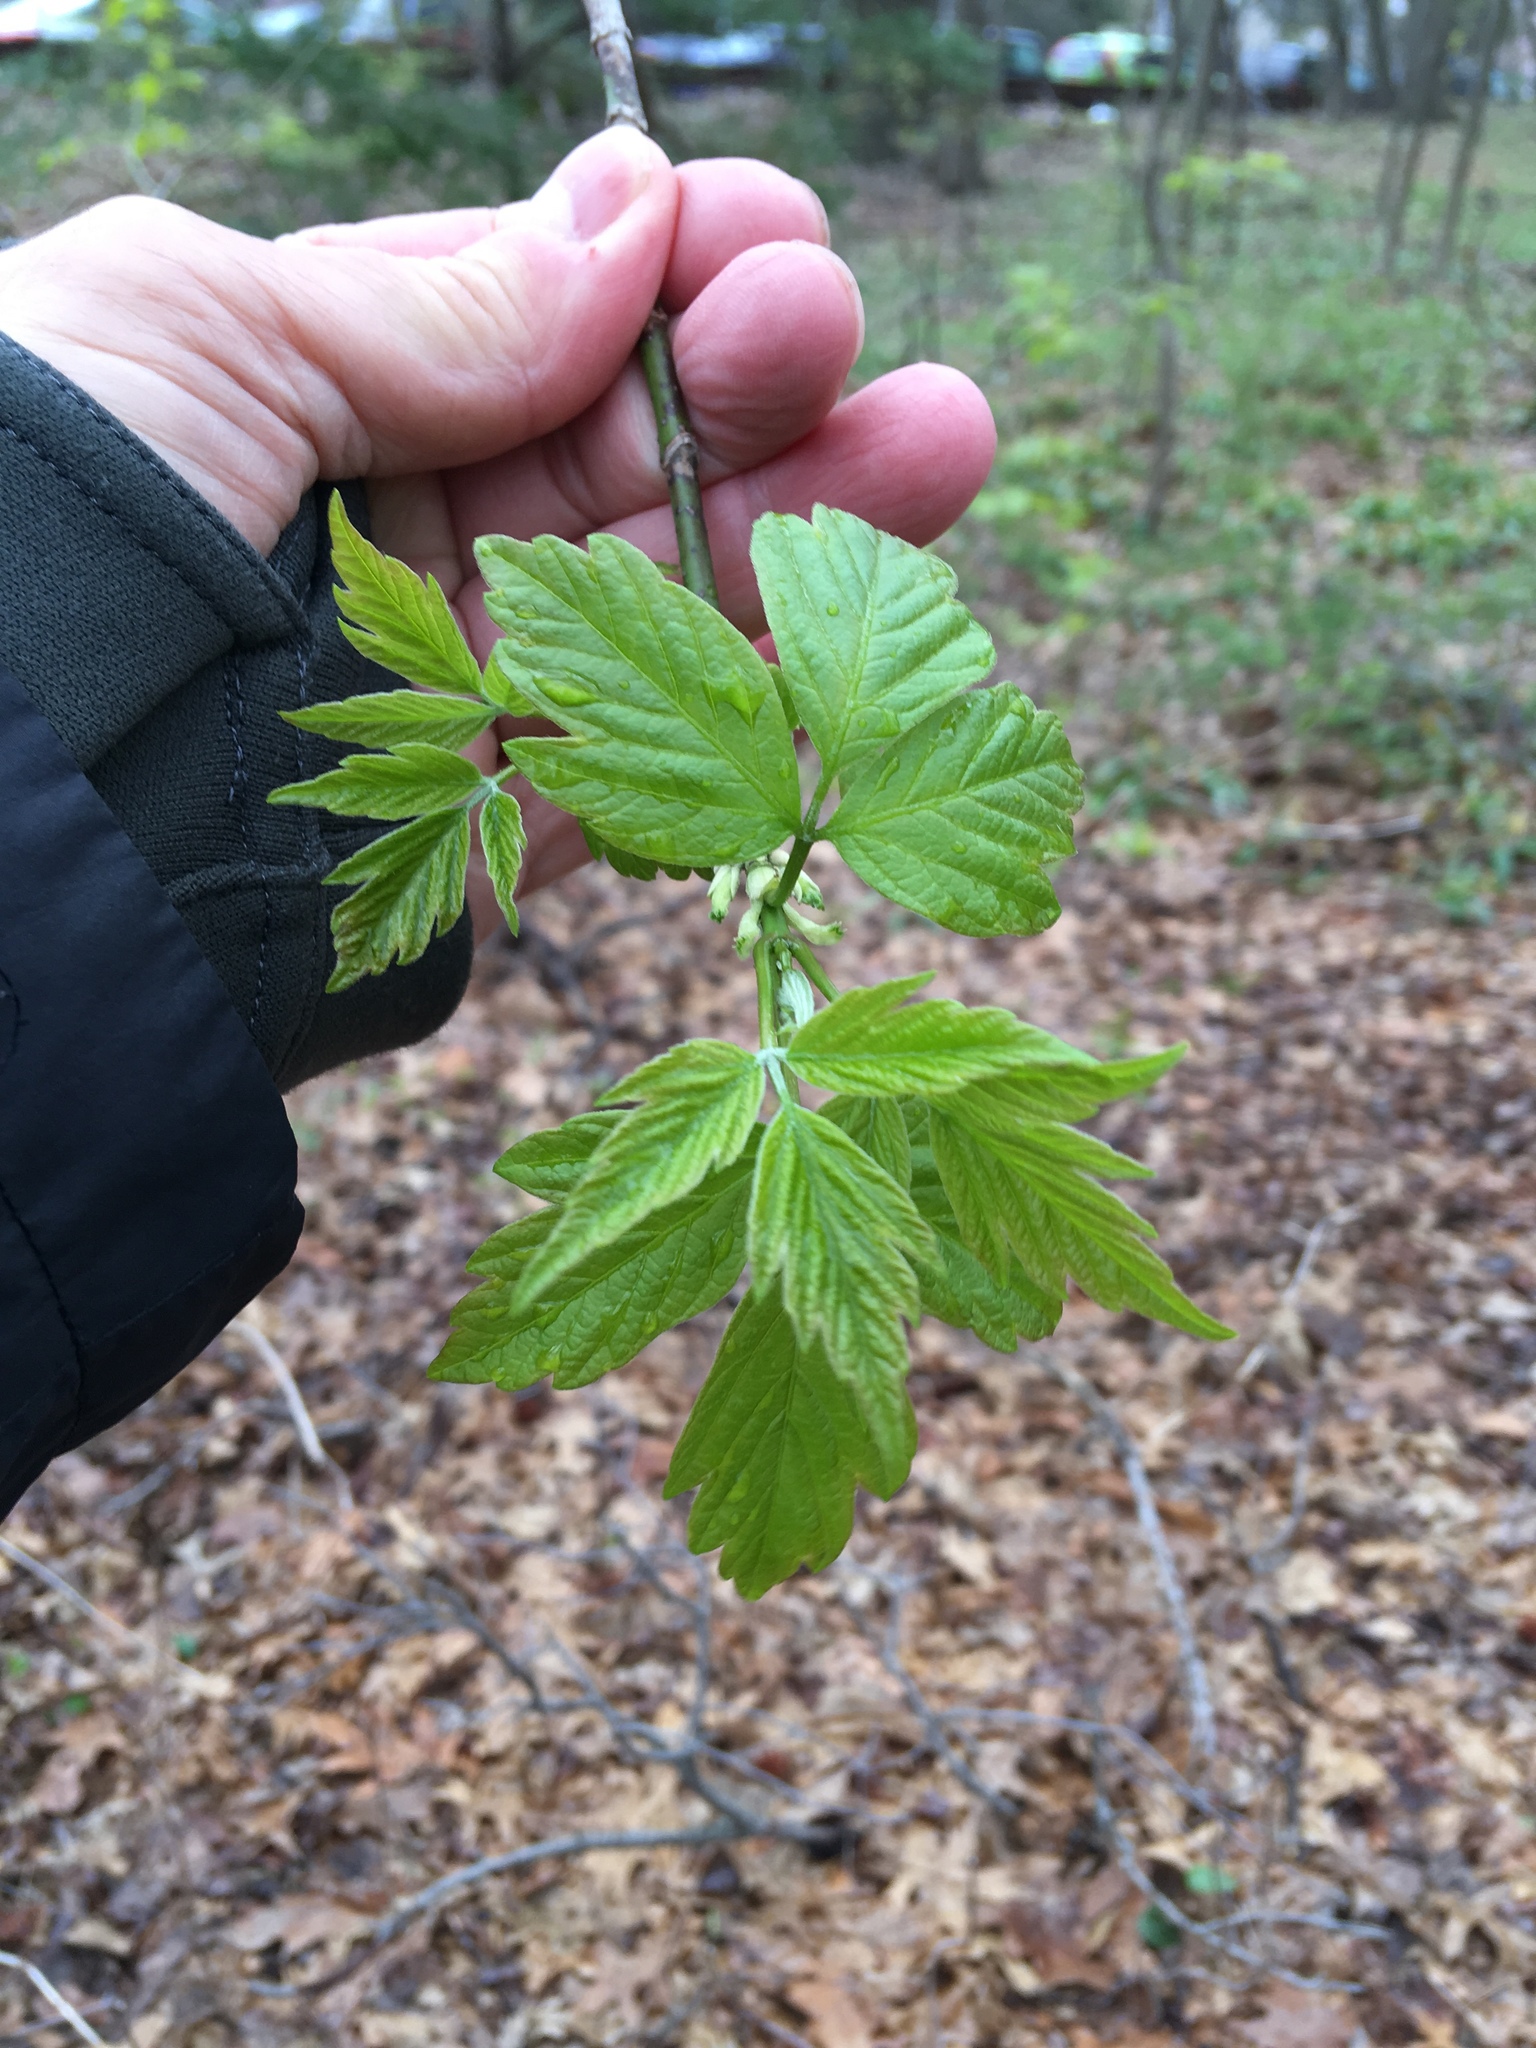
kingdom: Plantae
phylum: Tracheophyta
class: Magnoliopsida
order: Sapindales
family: Sapindaceae
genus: Acer
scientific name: Acer negundo
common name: Ashleaf maple
